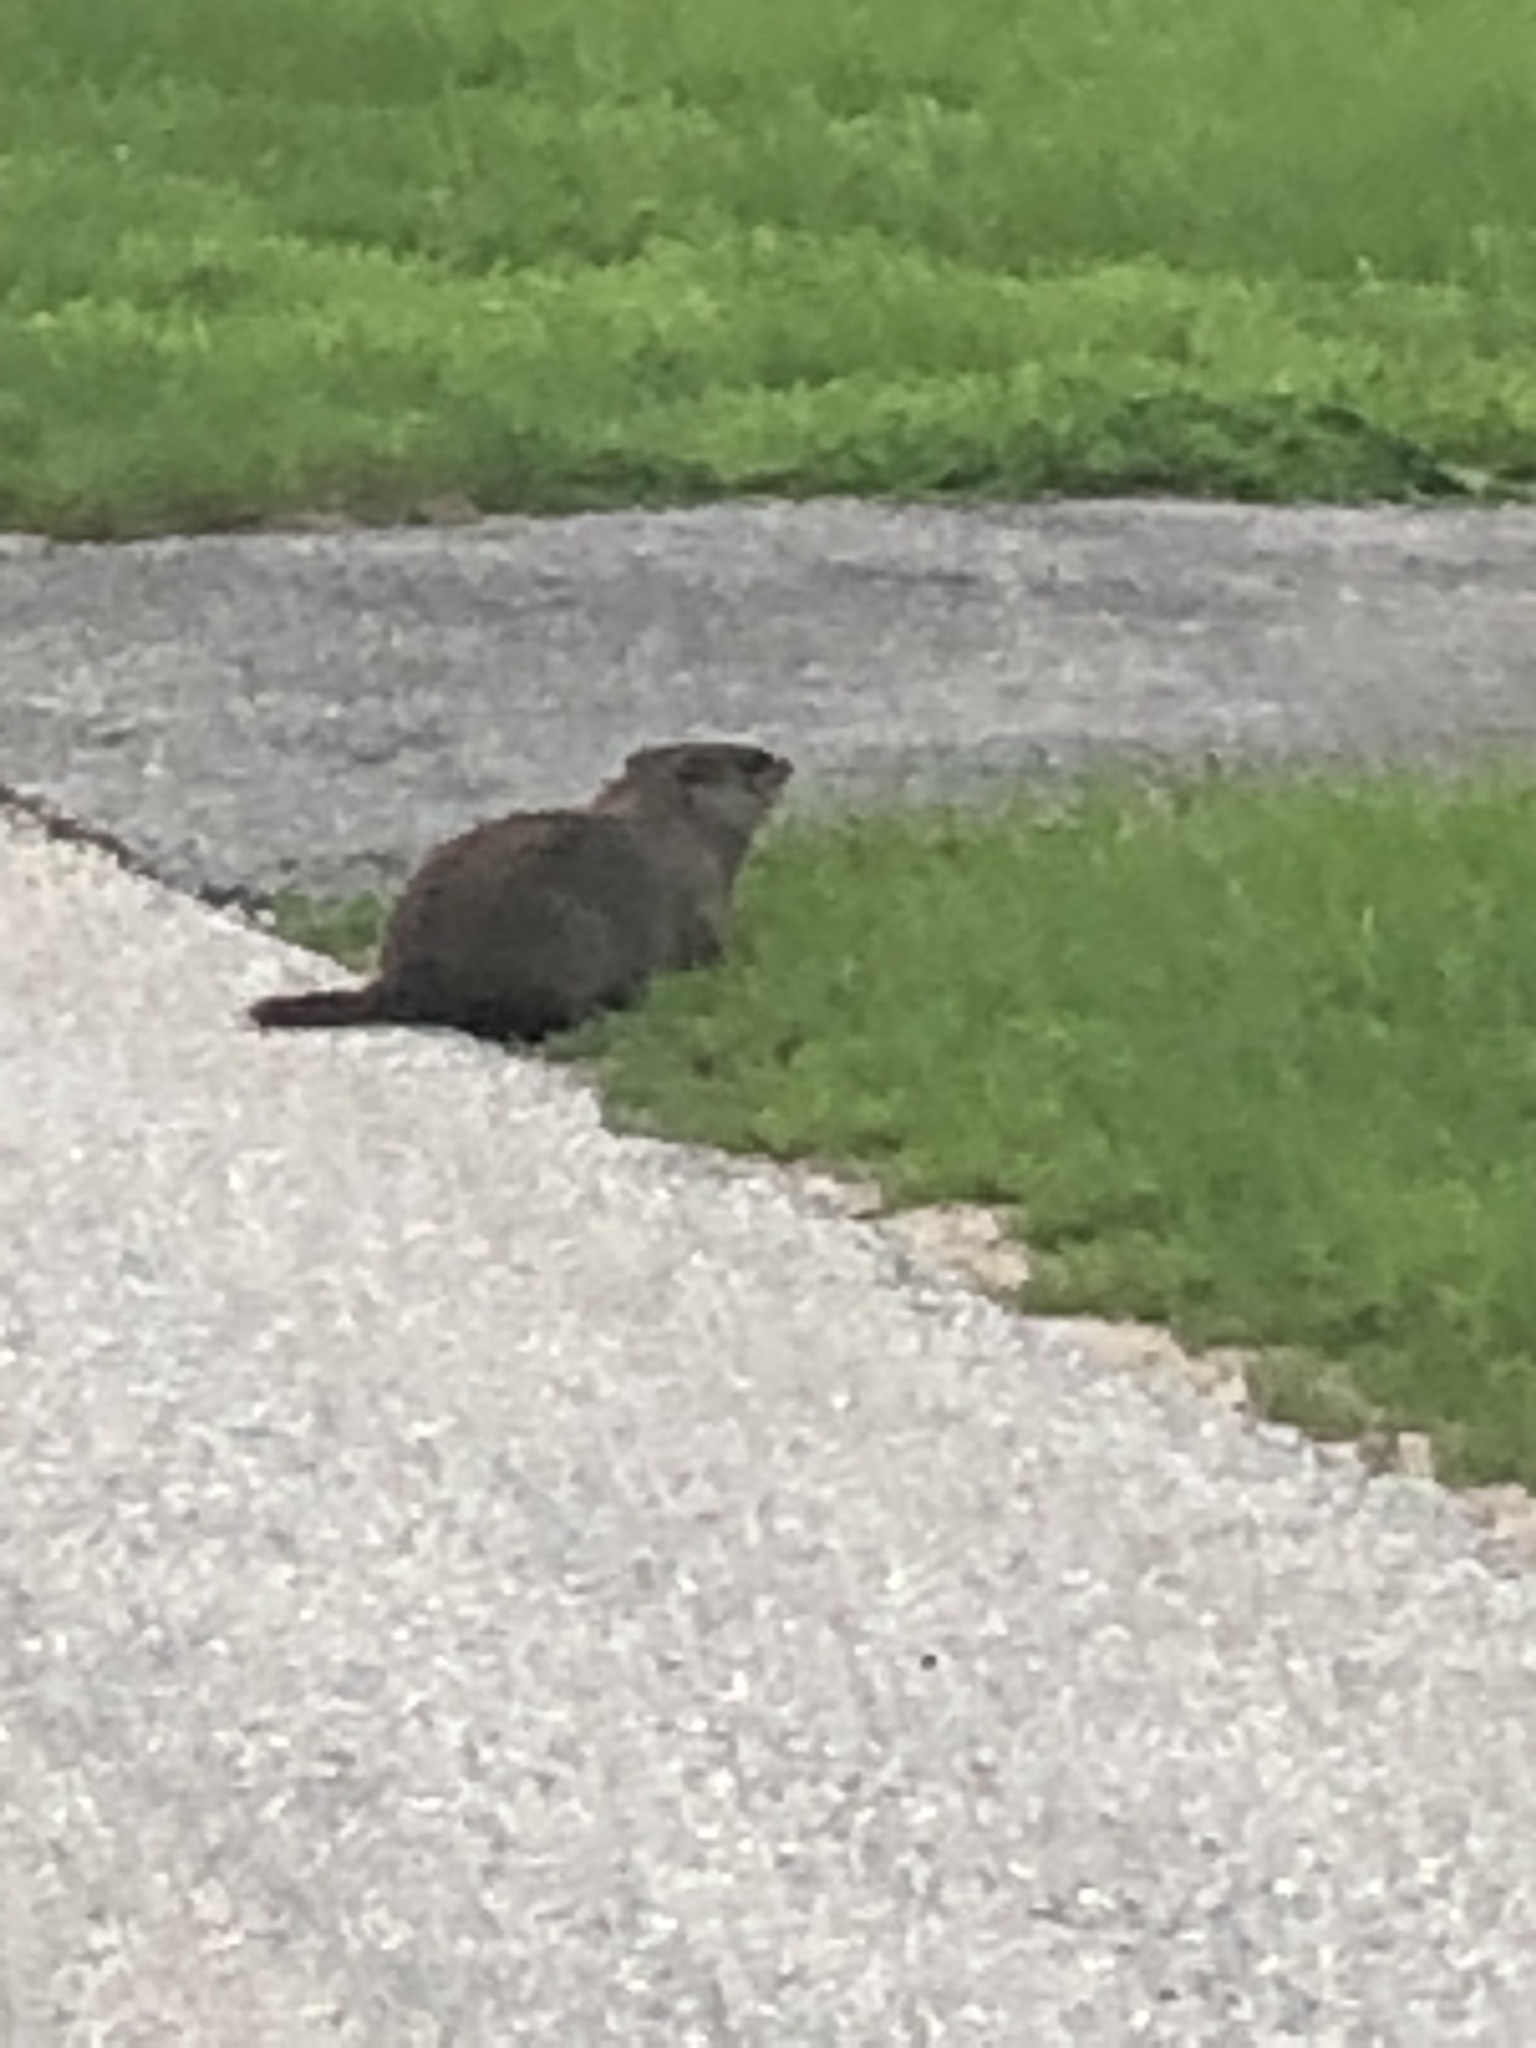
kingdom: Animalia
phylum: Chordata
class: Mammalia
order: Rodentia
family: Sciuridae
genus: Marmota
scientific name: Marmota monax
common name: Groundhog
